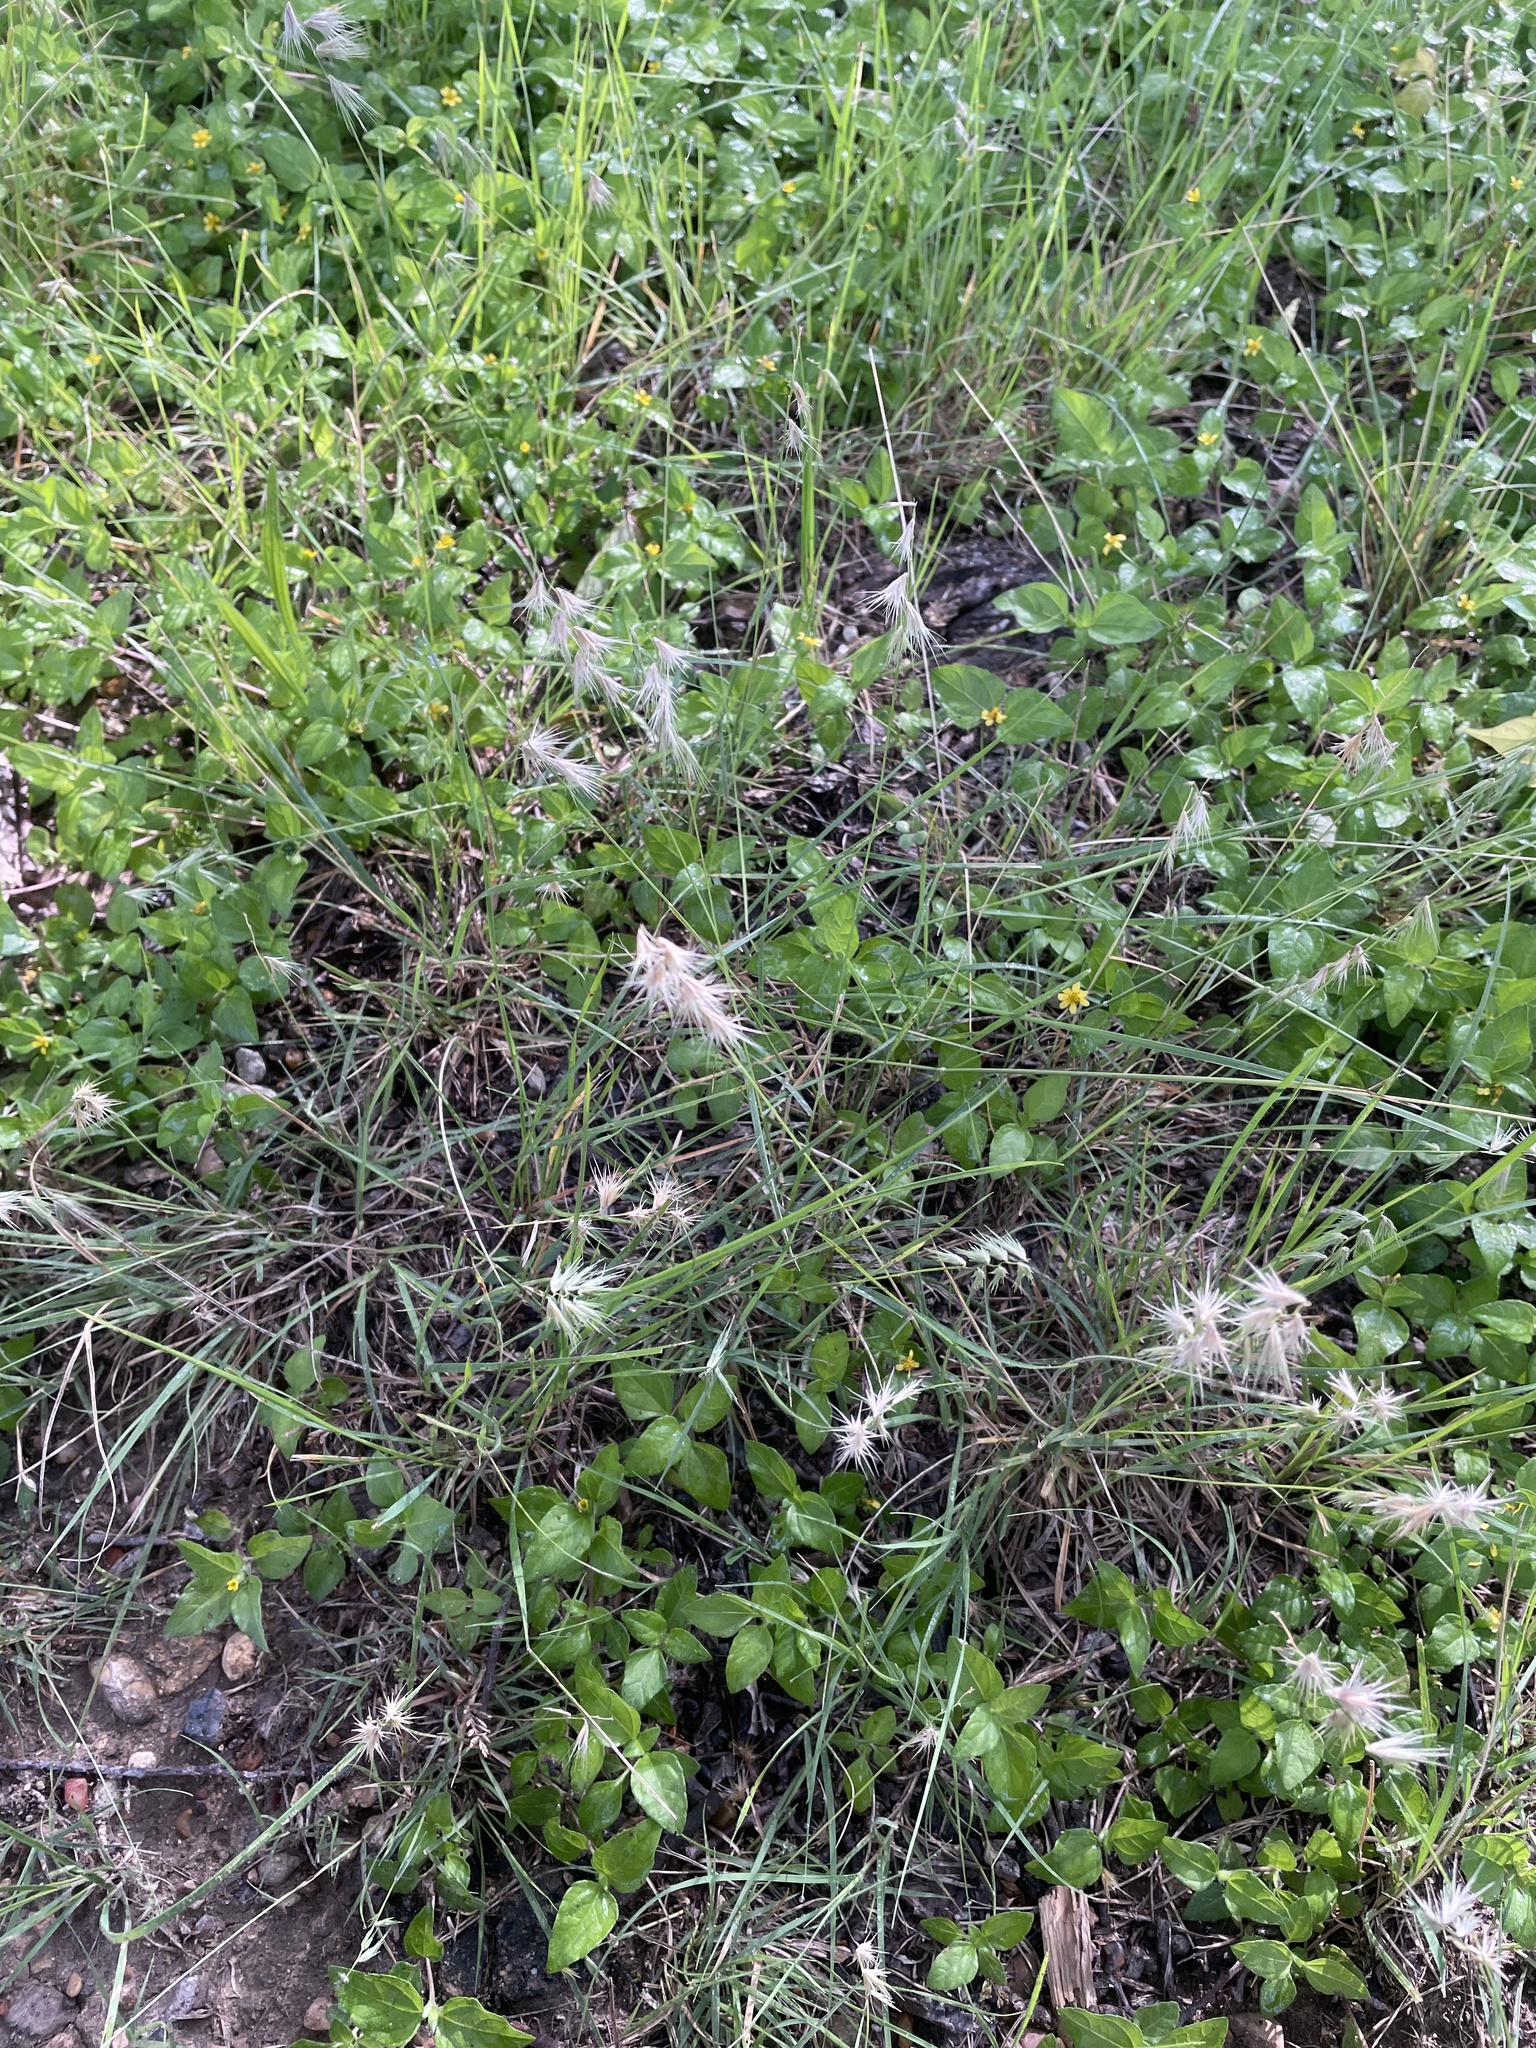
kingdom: Plantae
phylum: Tracheophyta
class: Liliopsida
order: Poales
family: Poaceae
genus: Bouteloua
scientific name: Bouteloua rigidiseta
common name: Texas grama
